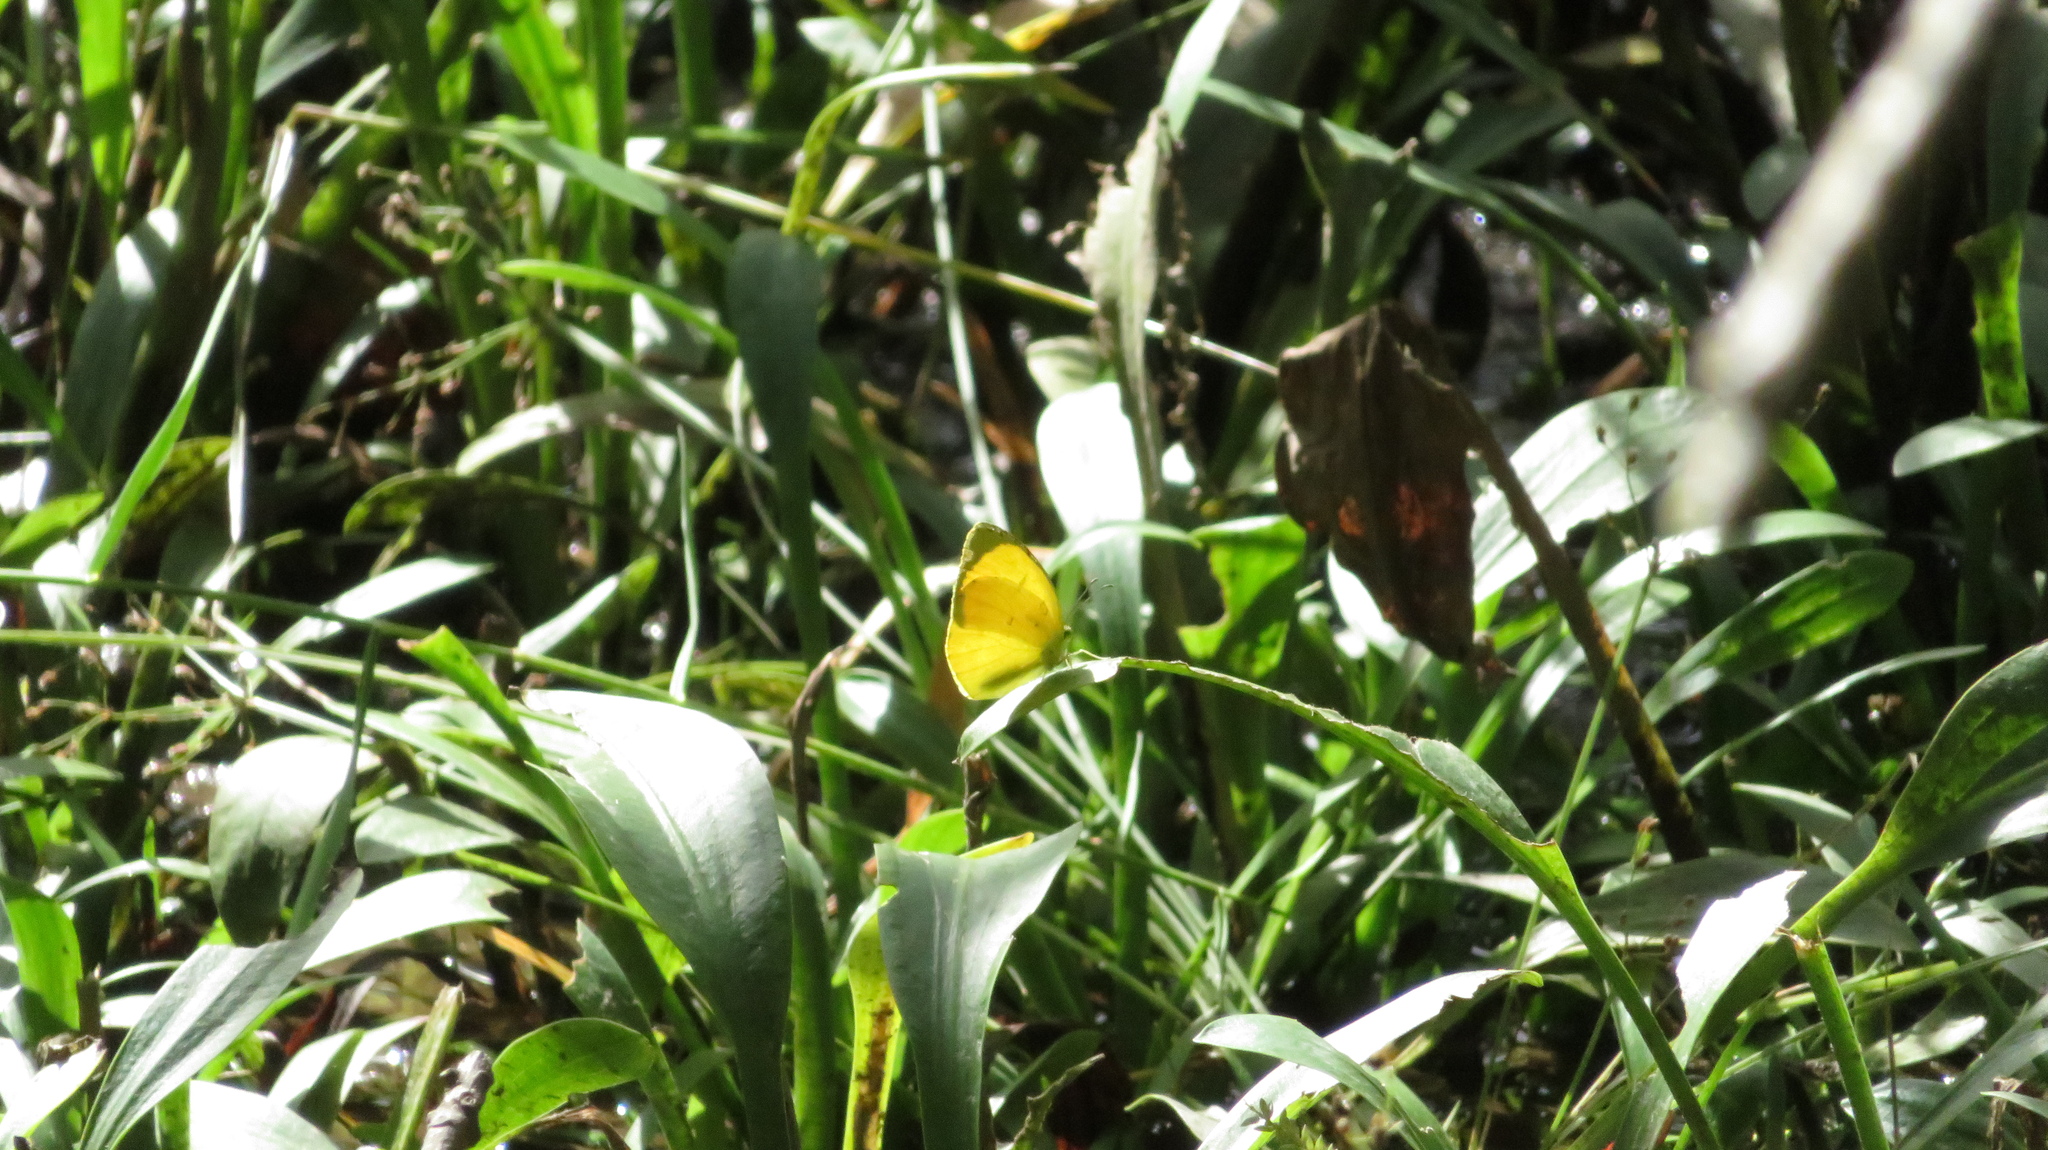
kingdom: Animalia
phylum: Arthropoda
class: Insecta
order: Lepidoptera
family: Pieridae
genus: Eurema
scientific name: Eurema mandarina
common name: Japanese common grass yellow
